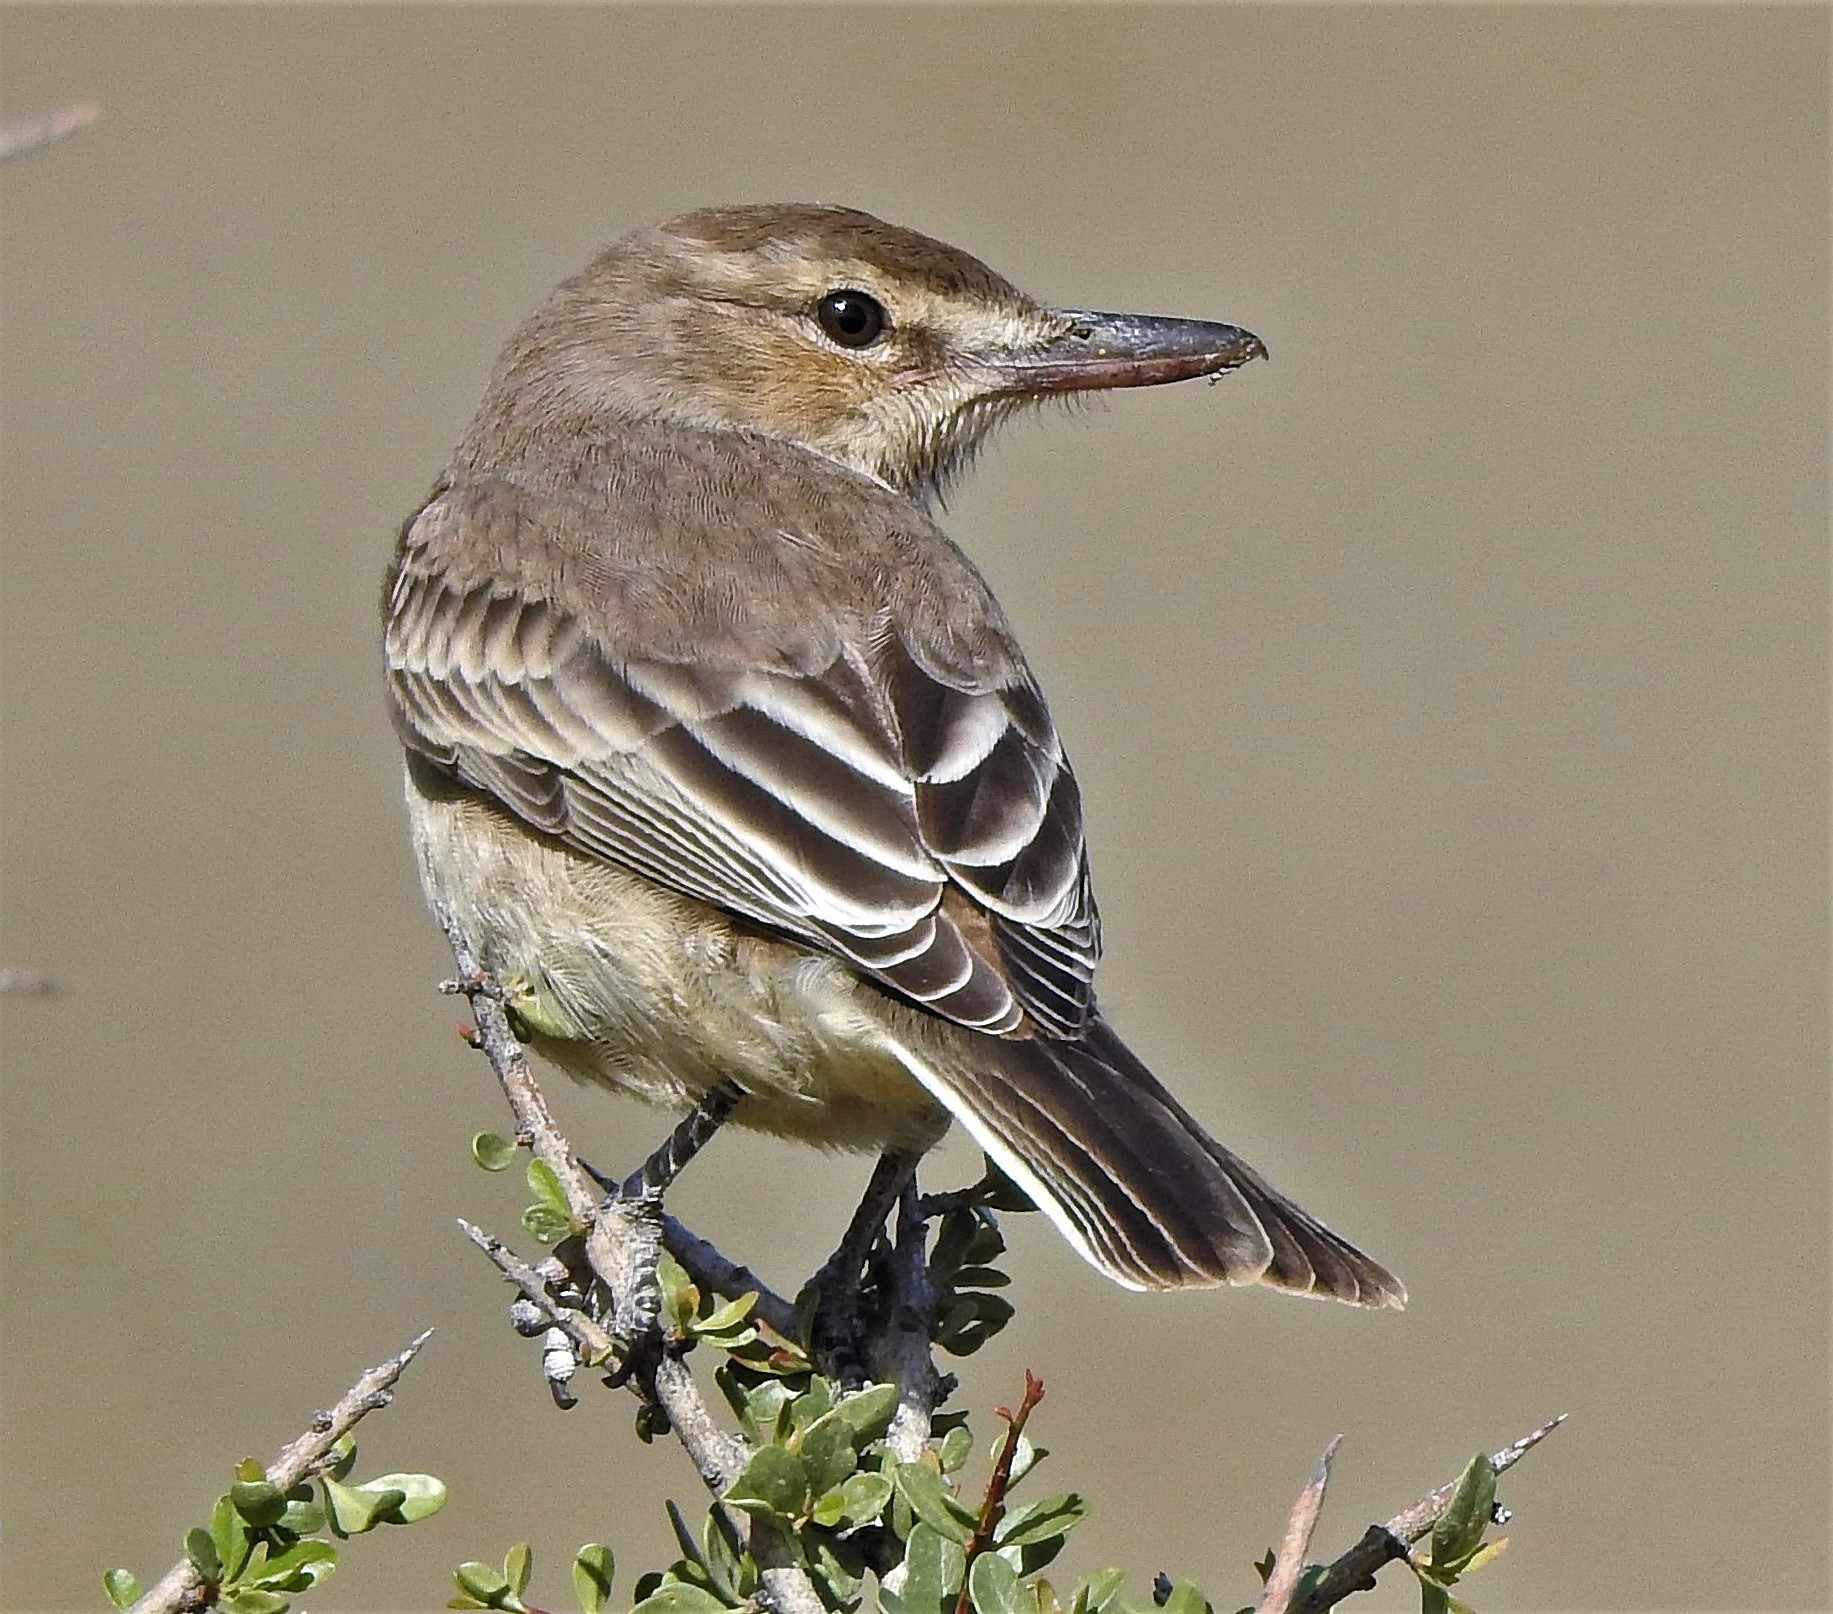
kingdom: Animalia
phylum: Chordata
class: Aves
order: Passeriformes
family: Tyrannidae
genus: Agriornis
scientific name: Agriornis micropterus
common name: Grey-bellied shrike-tyrant
